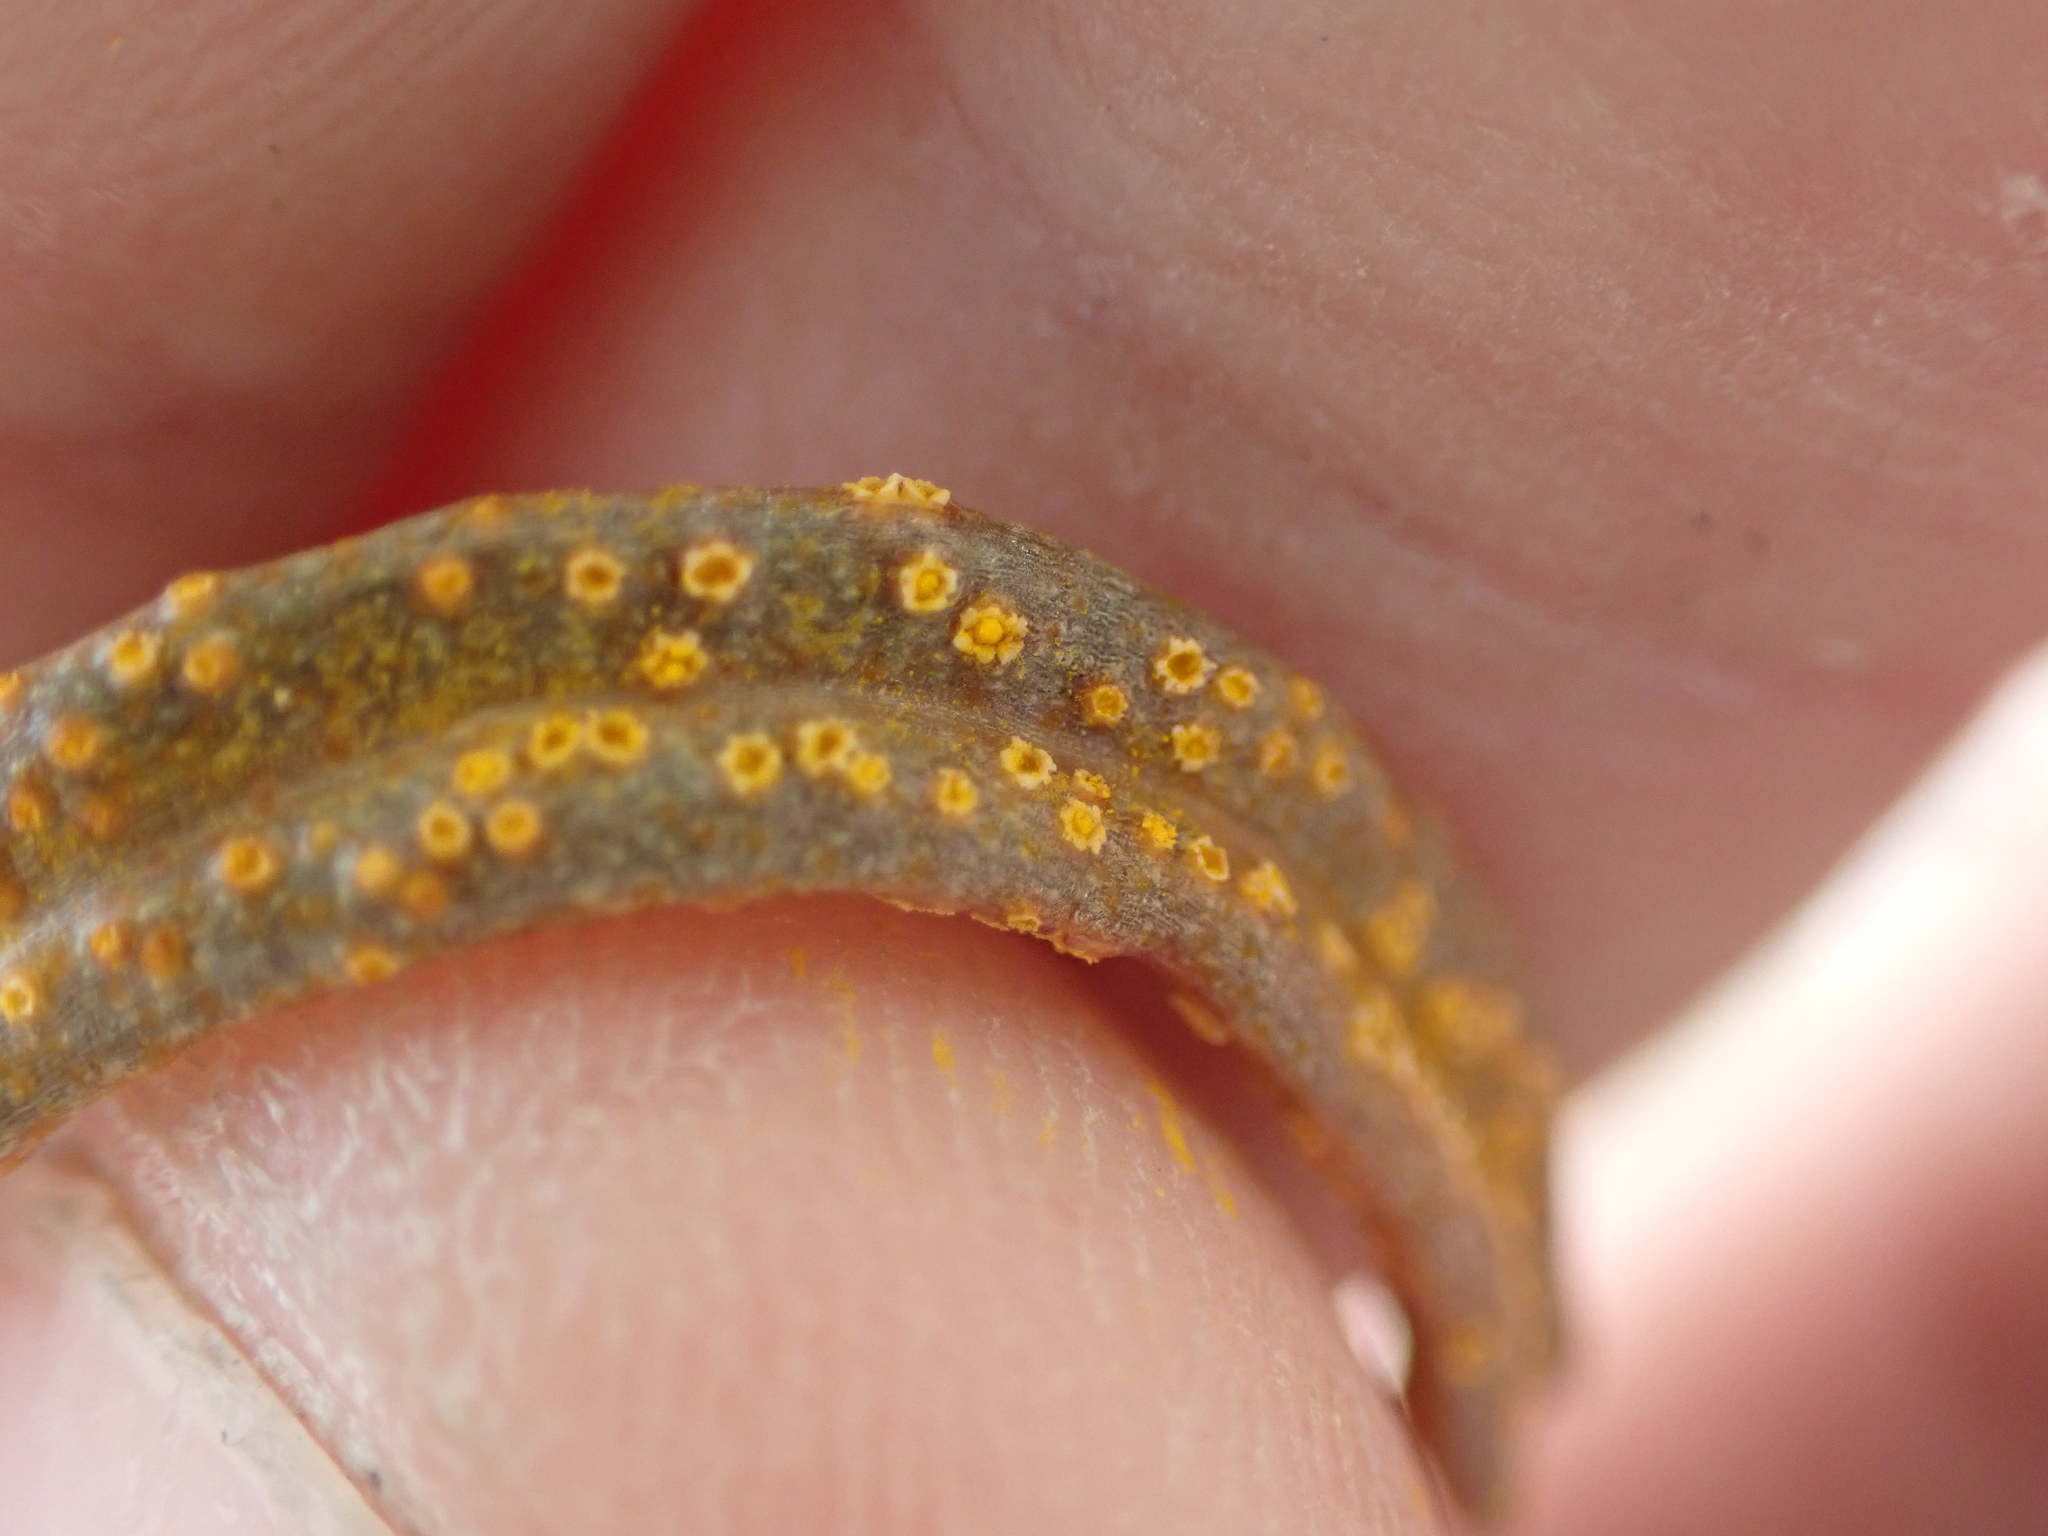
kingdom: Fungi
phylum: Basidiomycota
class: Pucciniomycetes
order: Pucciniales
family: Pucciniaceae
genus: Puccinia
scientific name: Puccinia mariae-wilsoniae
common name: Spring beauty rust
